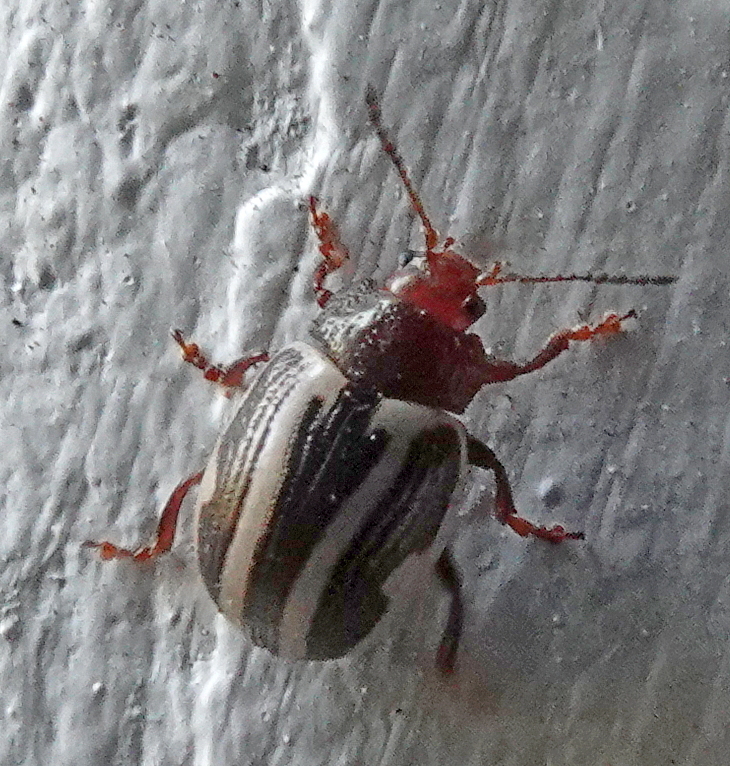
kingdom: Animalia
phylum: Arthropoda
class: Insecta
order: Coleoptera
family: Chrysomelidae
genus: Calligrapha
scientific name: Calligrapha bidenticola
